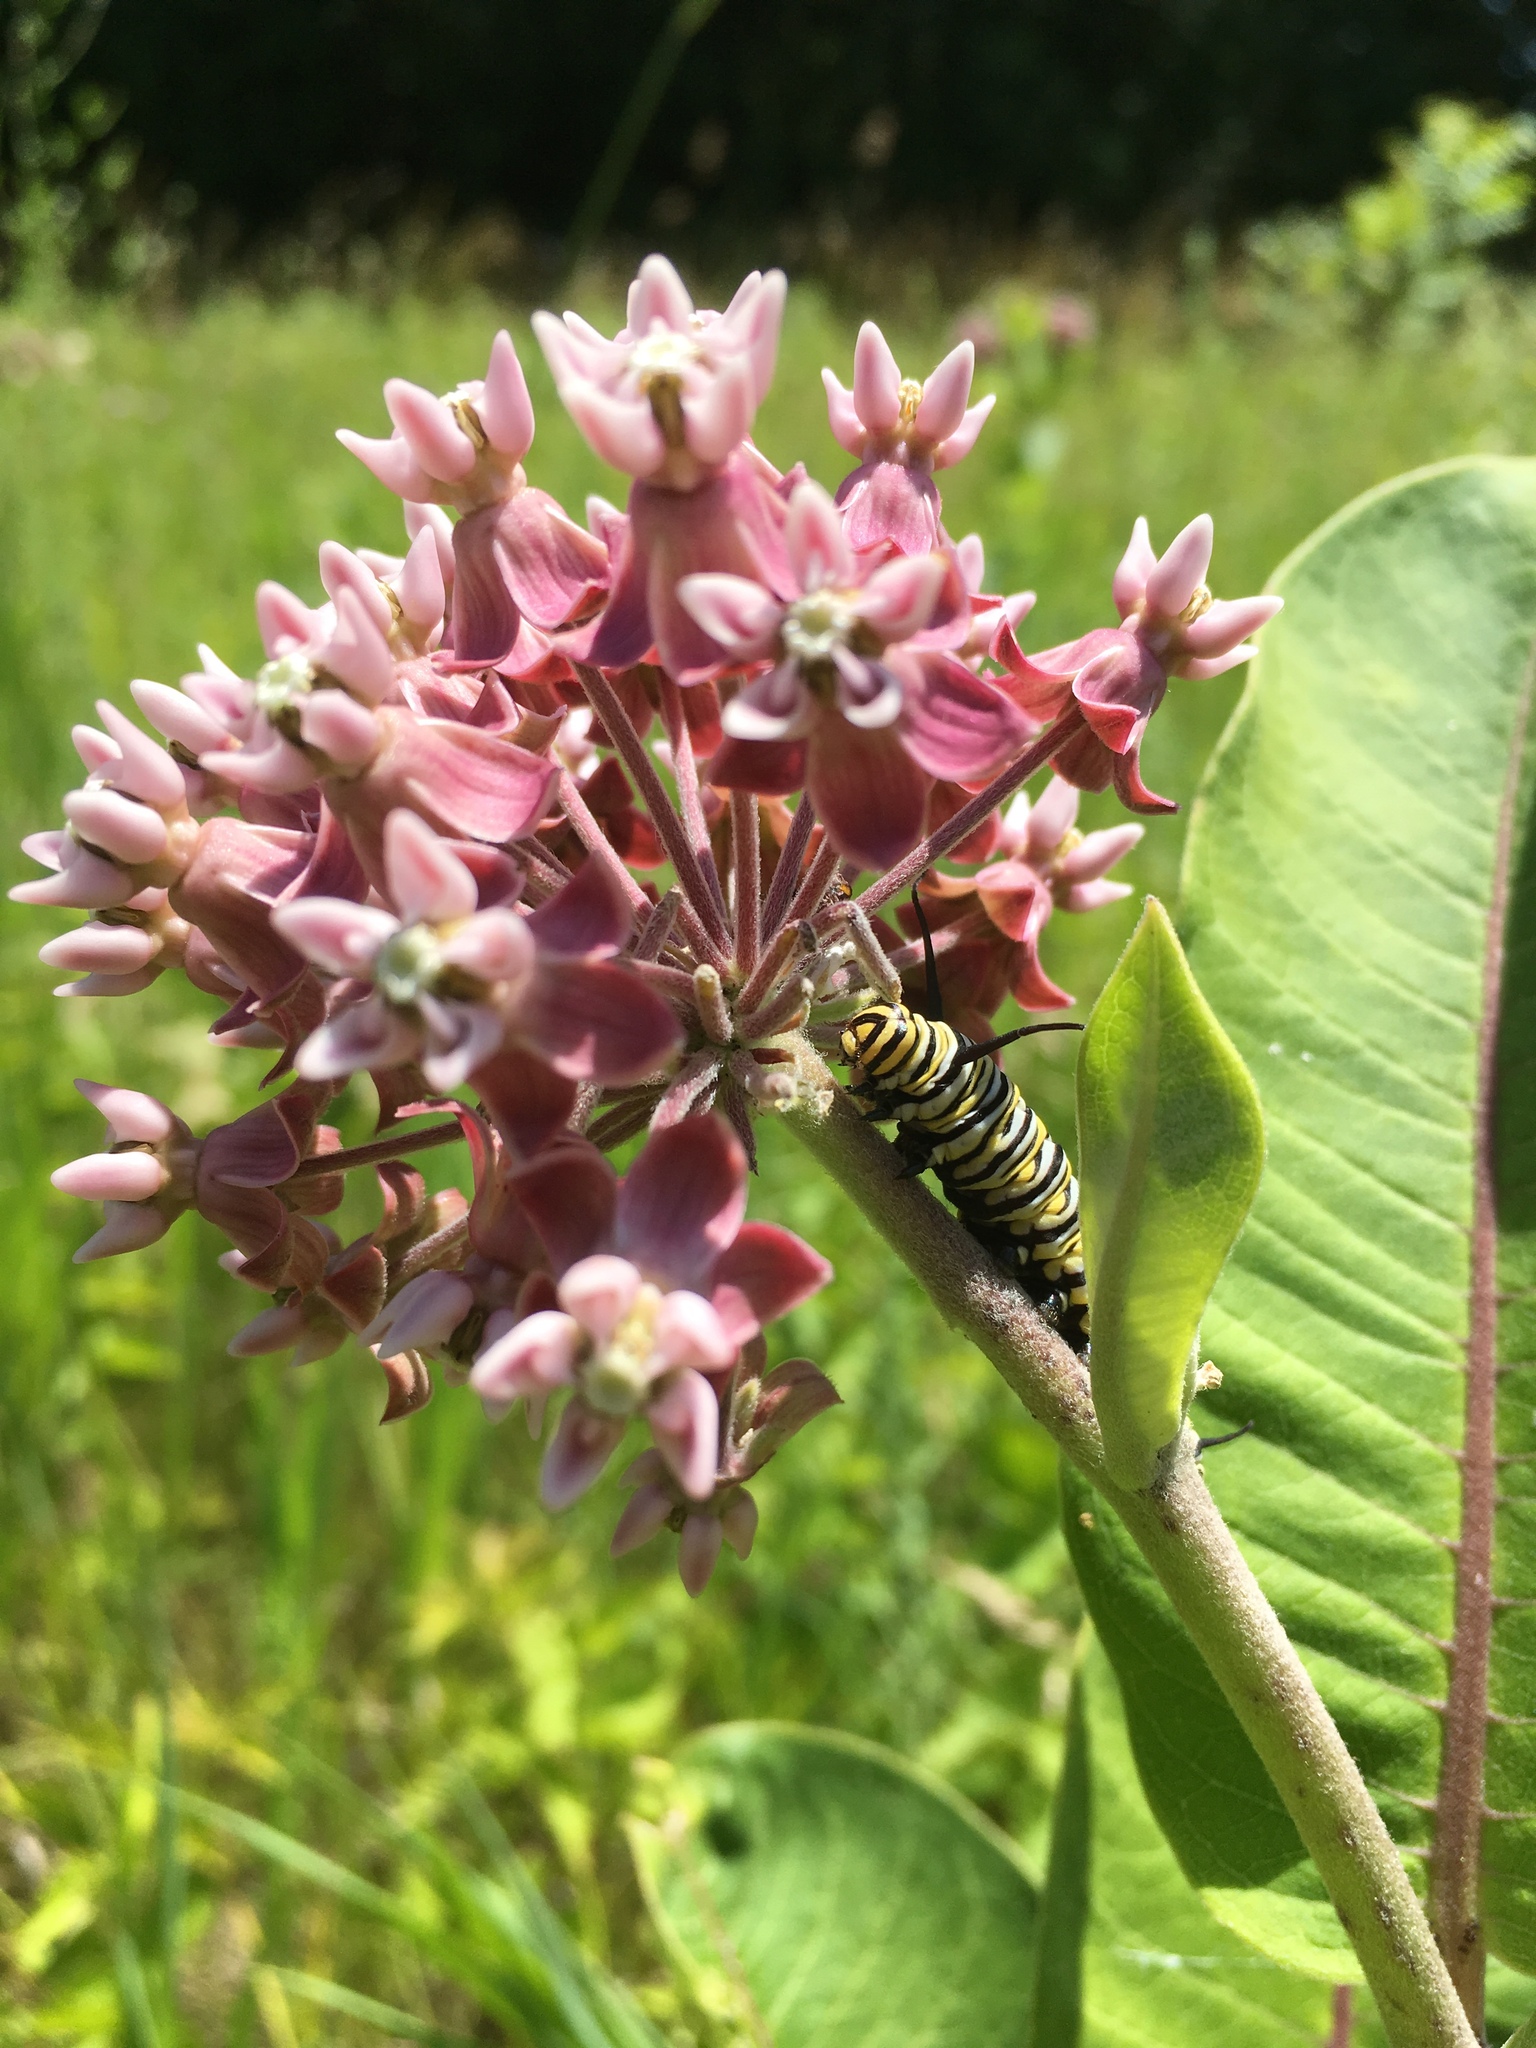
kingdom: Animalia
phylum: Arthropoda
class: Insecta
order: Lepidoptera
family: Nymphalidae
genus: Danaus
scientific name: Danaus plexippus
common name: Monarch
